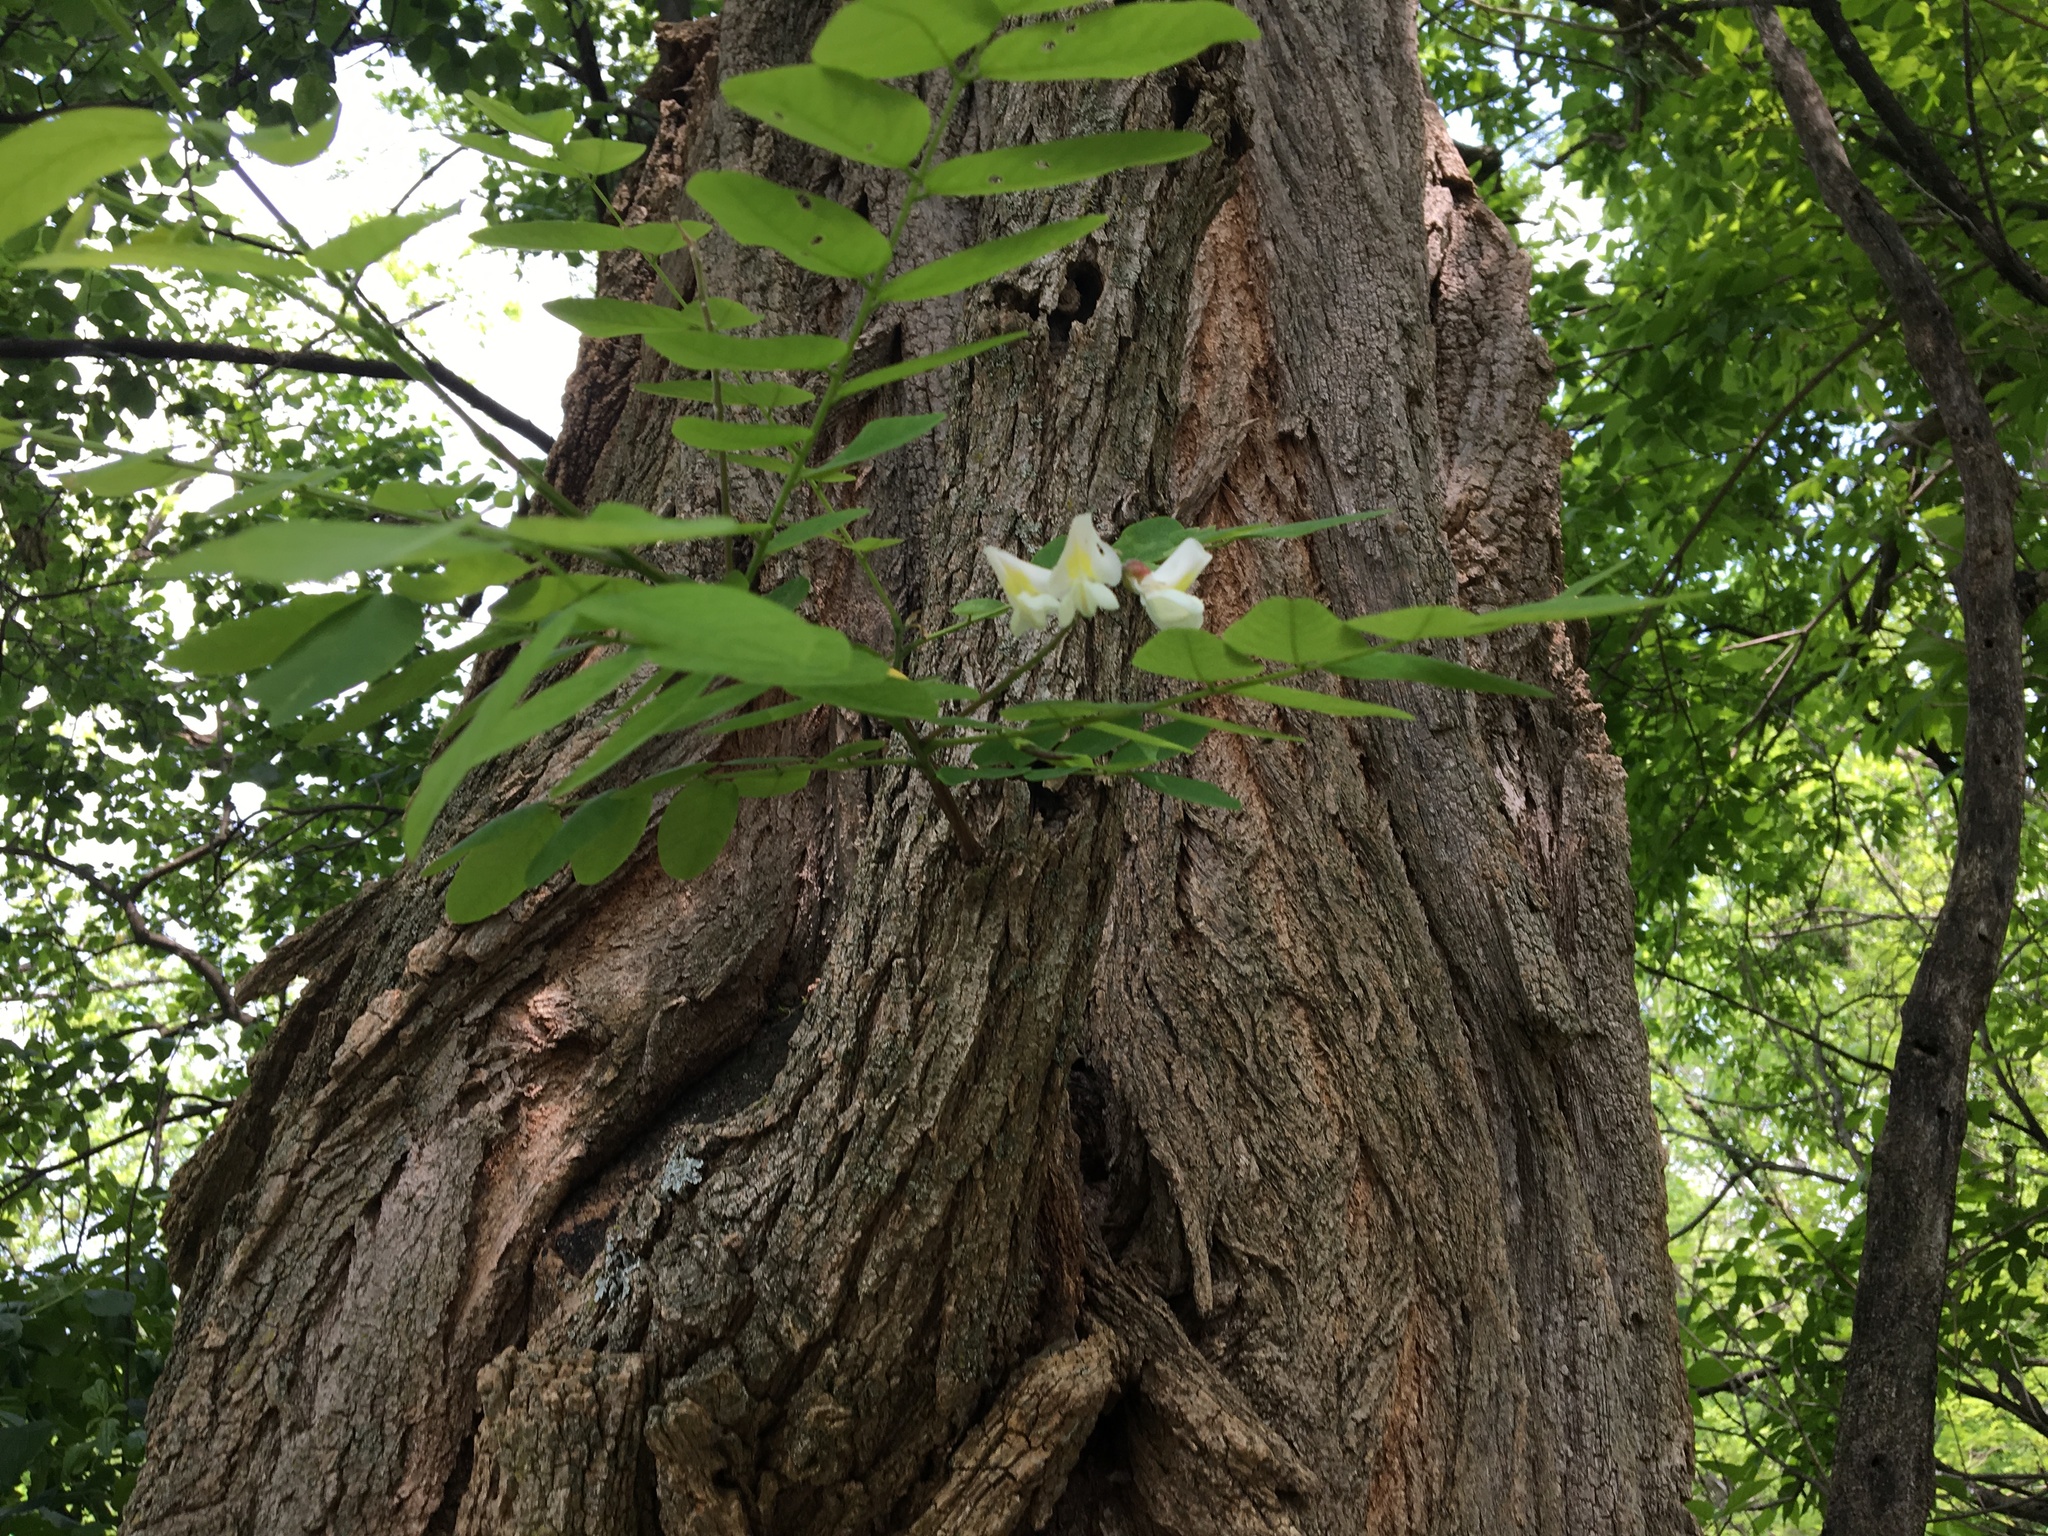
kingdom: Plantae
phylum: Tracheophyta
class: Magnoliopsida
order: Fabales
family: Fabaceae
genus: Robinia
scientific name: Robinia pseudoacacia
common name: Black locust
